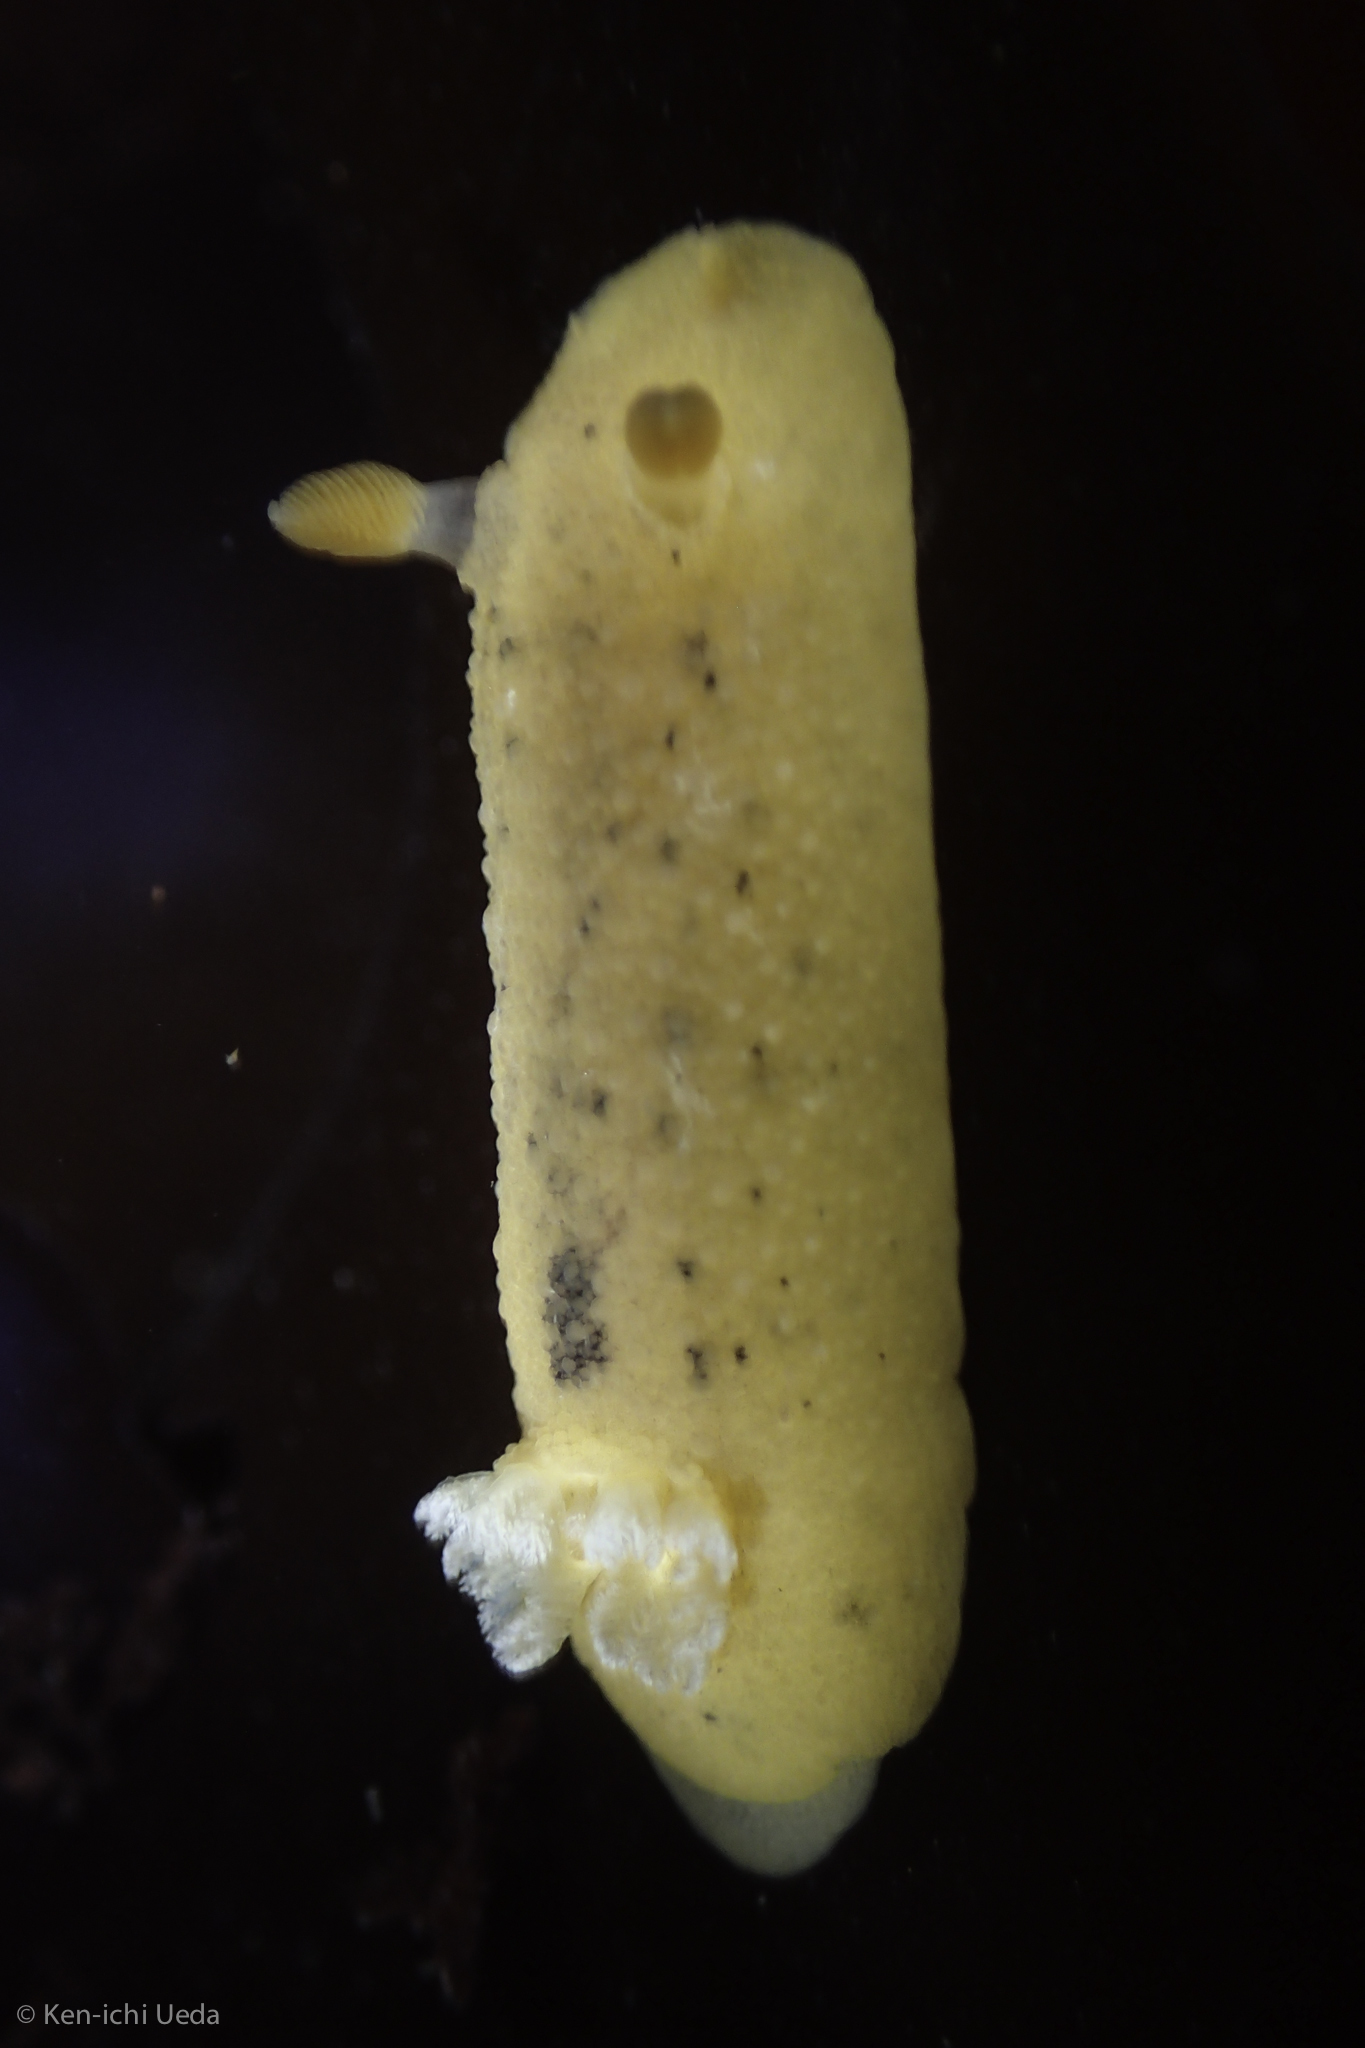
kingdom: Animalia
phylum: Mollusca
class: Gastropoda
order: Nudibranchia
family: Discodorididae
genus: Geitodoris
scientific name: Geitodoris heathi
